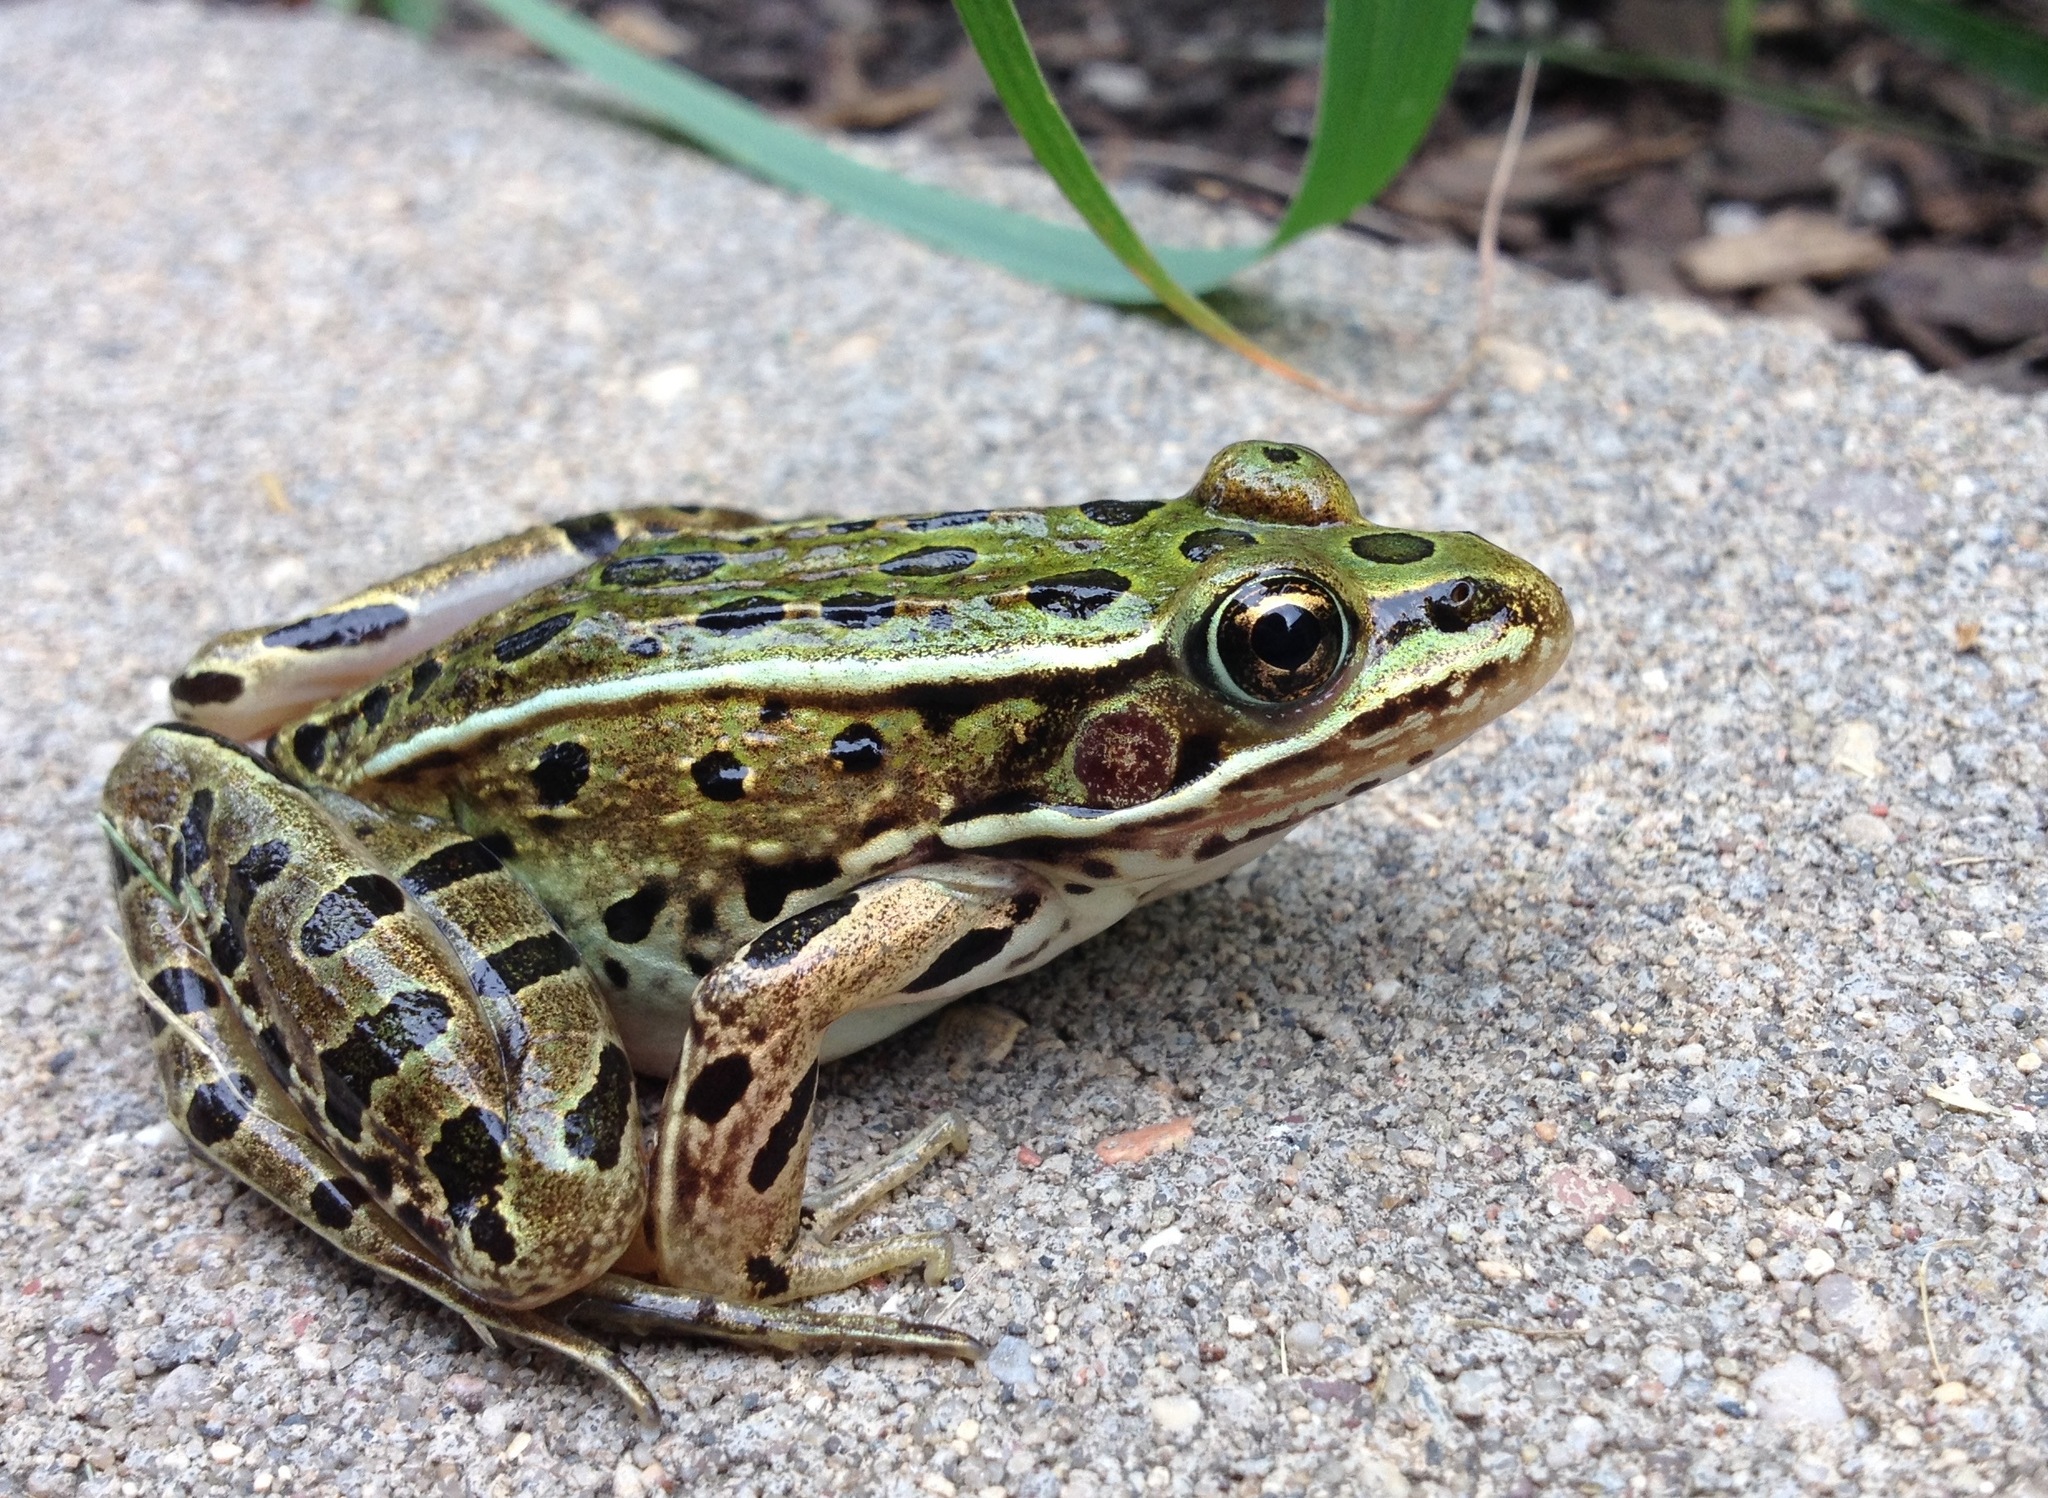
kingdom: Animalia
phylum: Chordata
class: Amphibia
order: Anura
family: Ranidae
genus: Lithobates
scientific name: Lithobates pipiens
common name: Northern leopard frog
